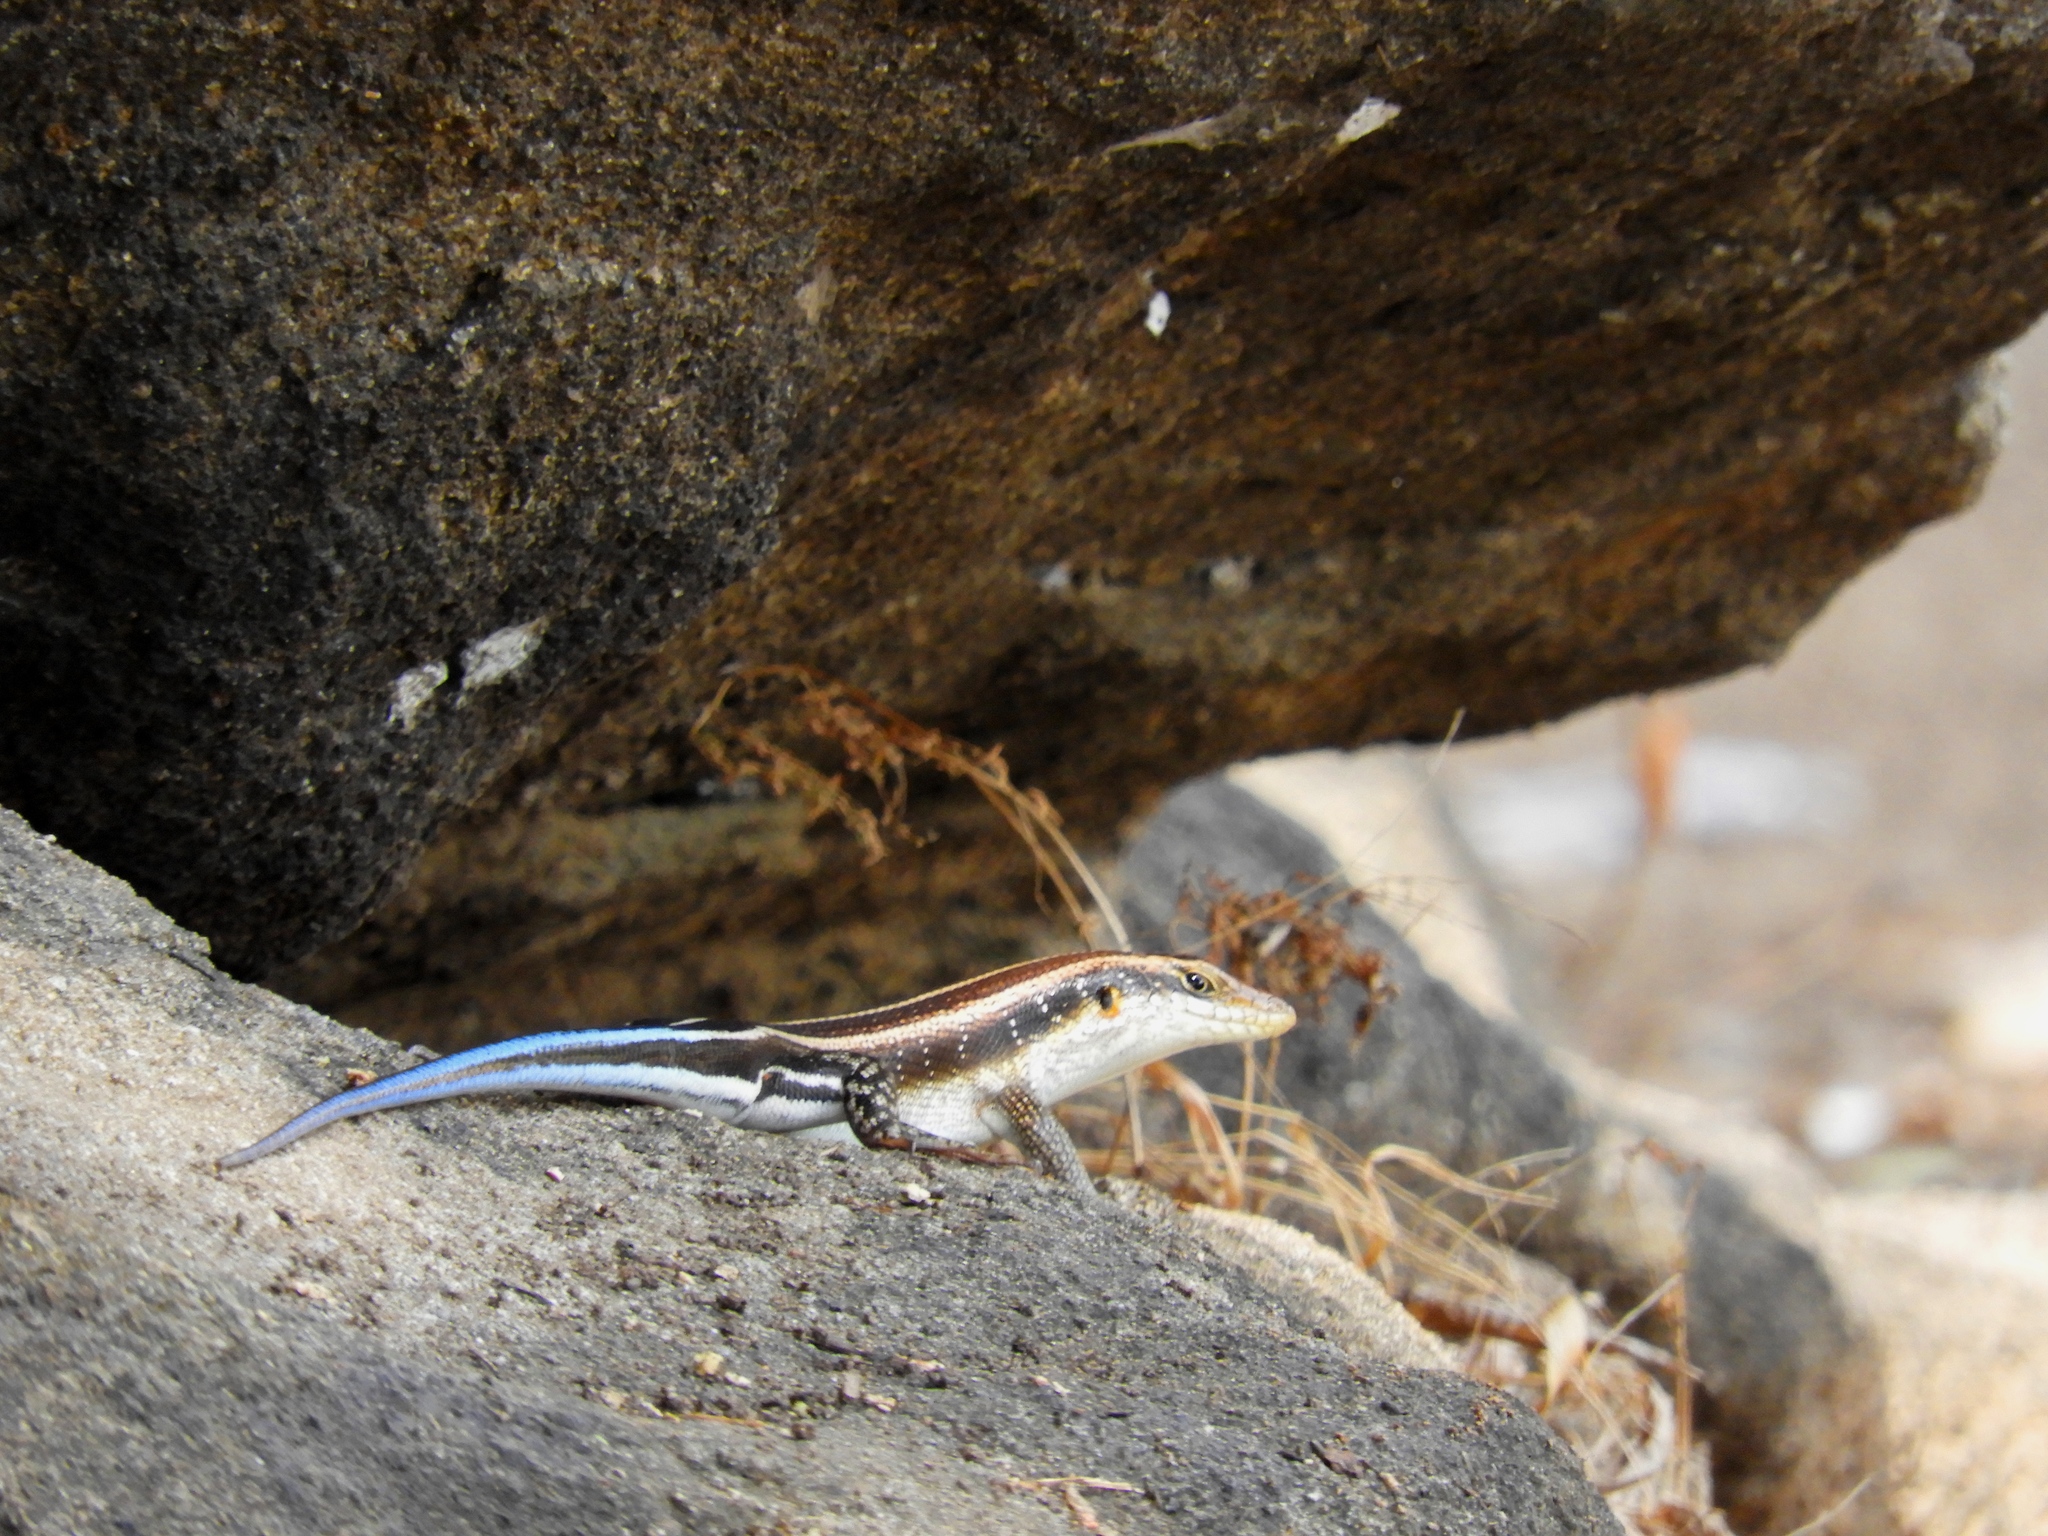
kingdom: Animalia
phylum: Chordata
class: Squamata
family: Scincidae
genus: Trachylepis
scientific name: Trachylepis margaritifera
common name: Rainbow skink
